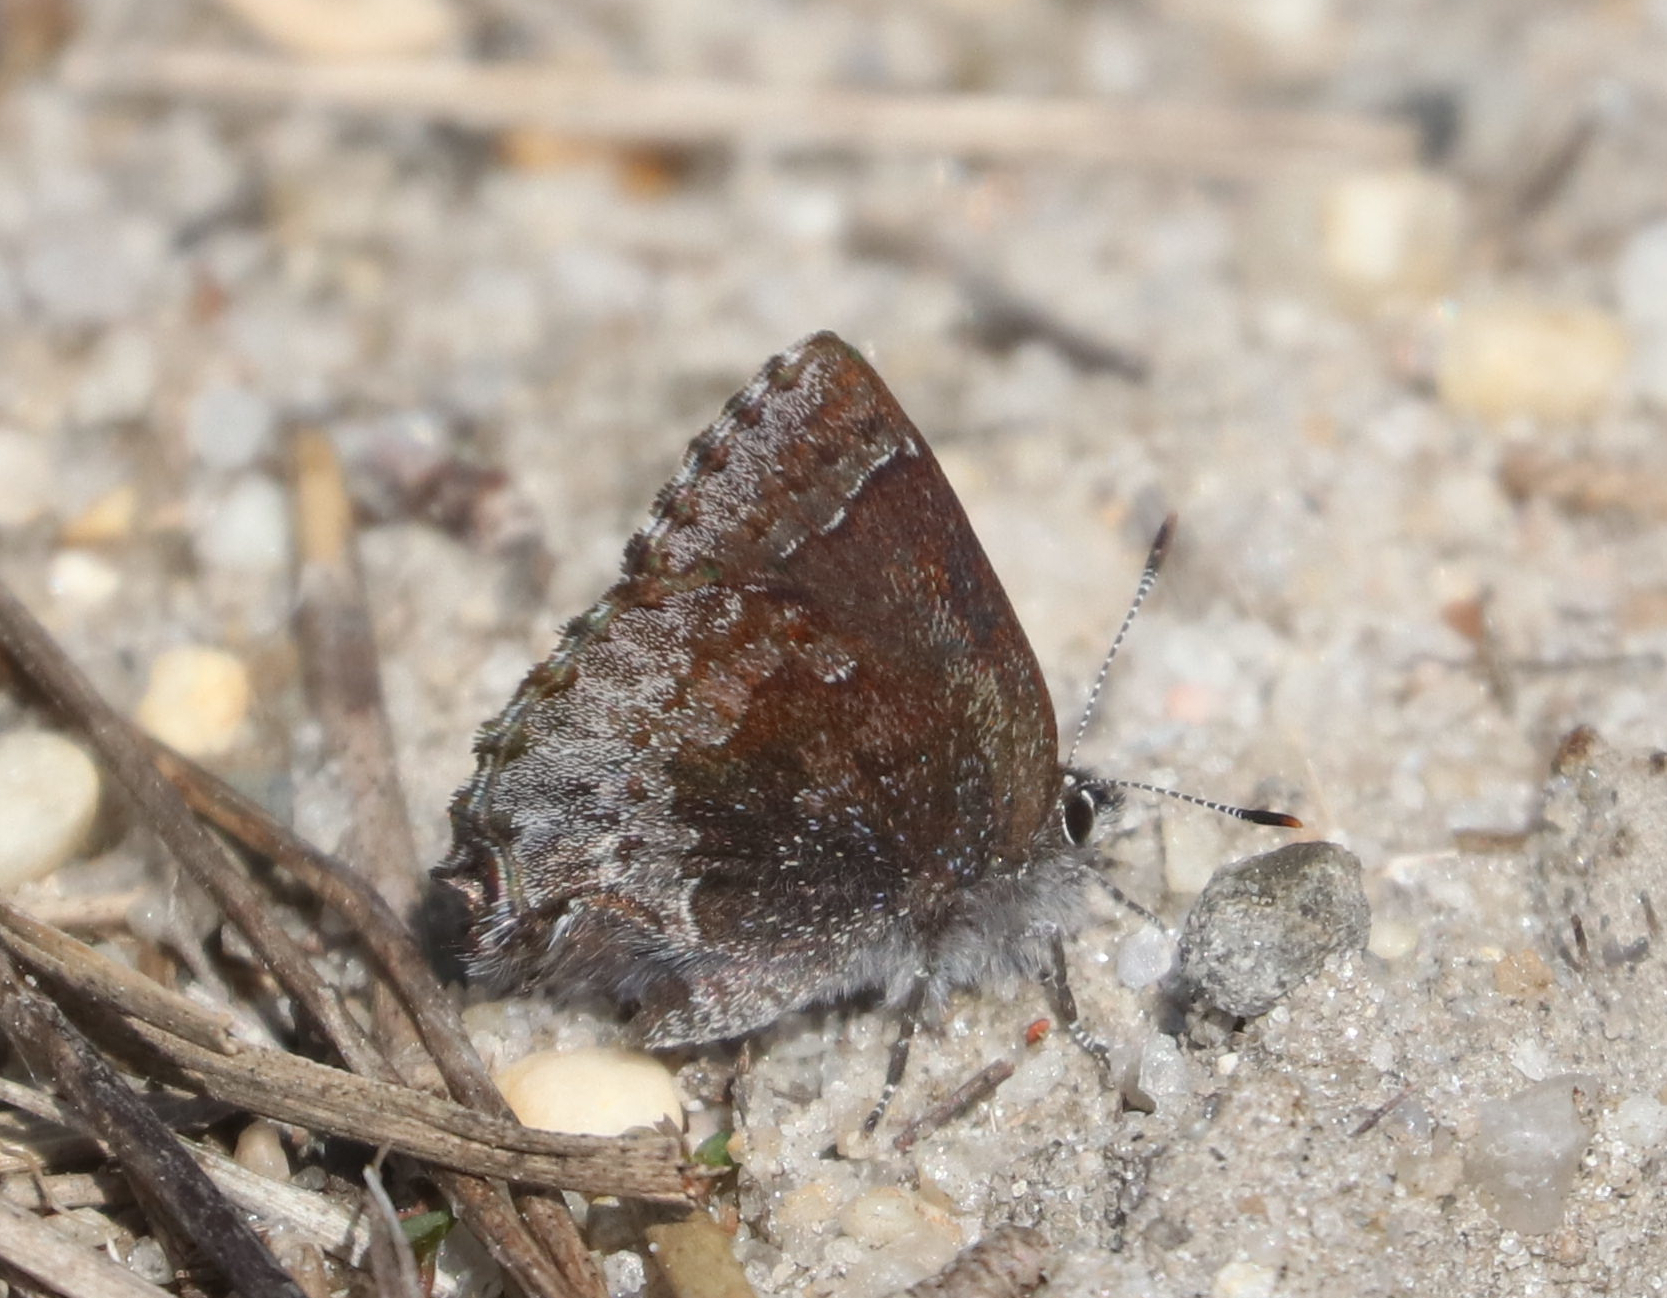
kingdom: Animalia
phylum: Arthropoda
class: Insecta
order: Lepidoptera
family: Lycaenidae
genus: Callophrys
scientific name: Callophrys polios
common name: Hoary elfin
